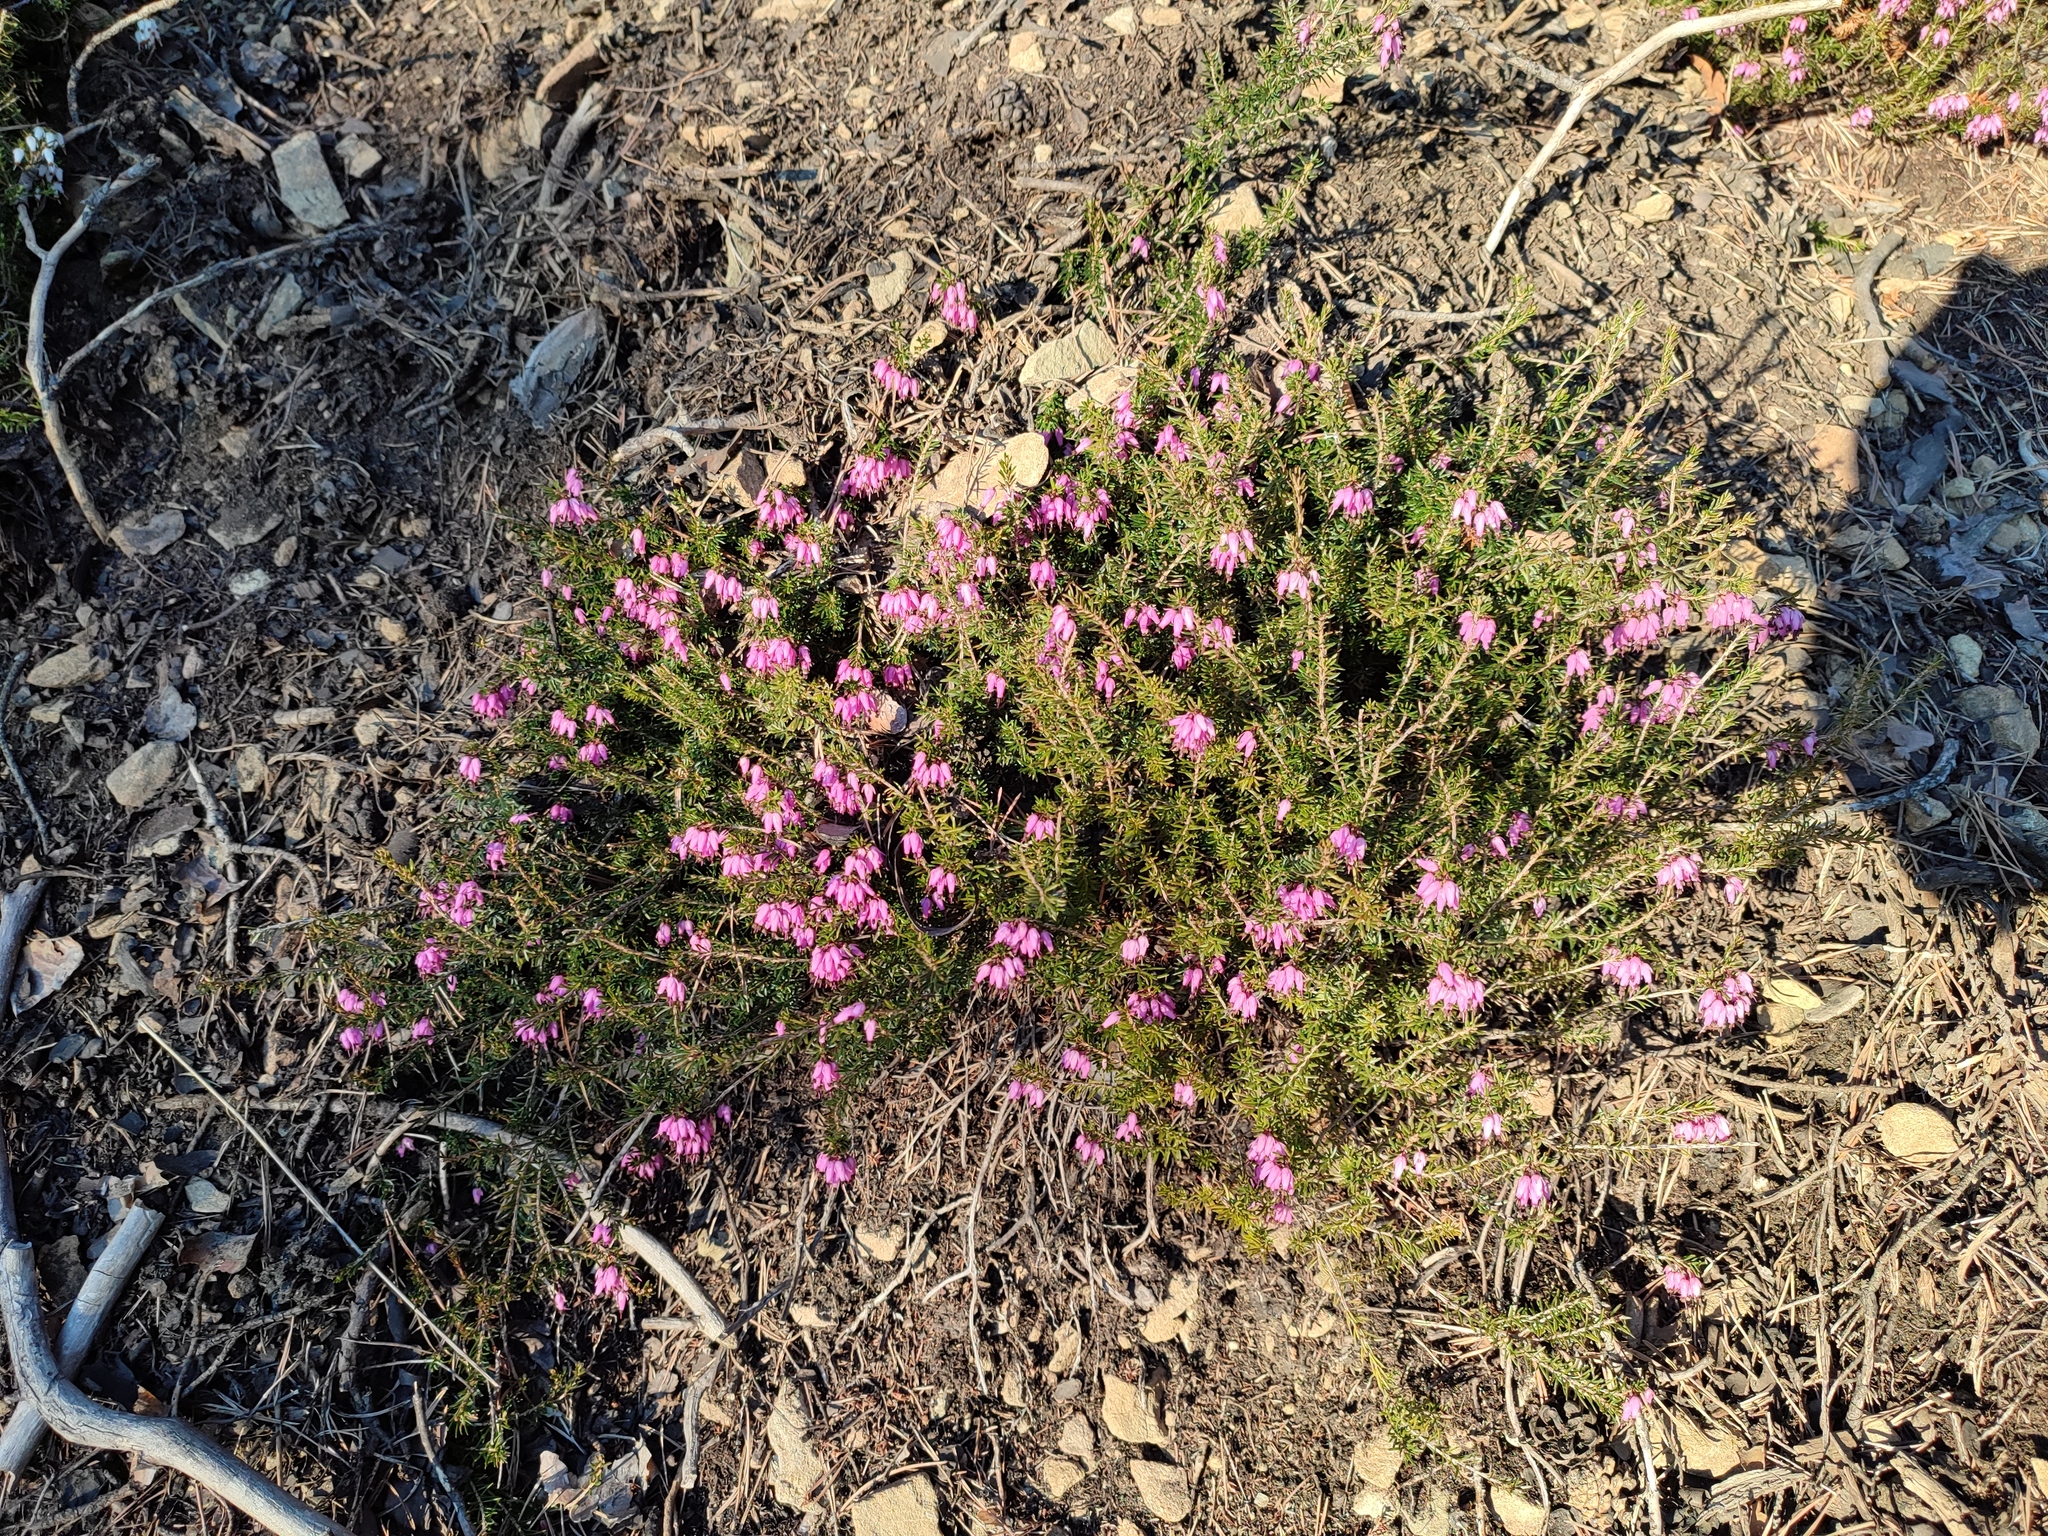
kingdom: Plantae
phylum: Tracheophyta
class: Magnoliopsida
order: Ericales
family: Ericaceae
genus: Erica
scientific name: Erica carnea
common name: Winter heath
